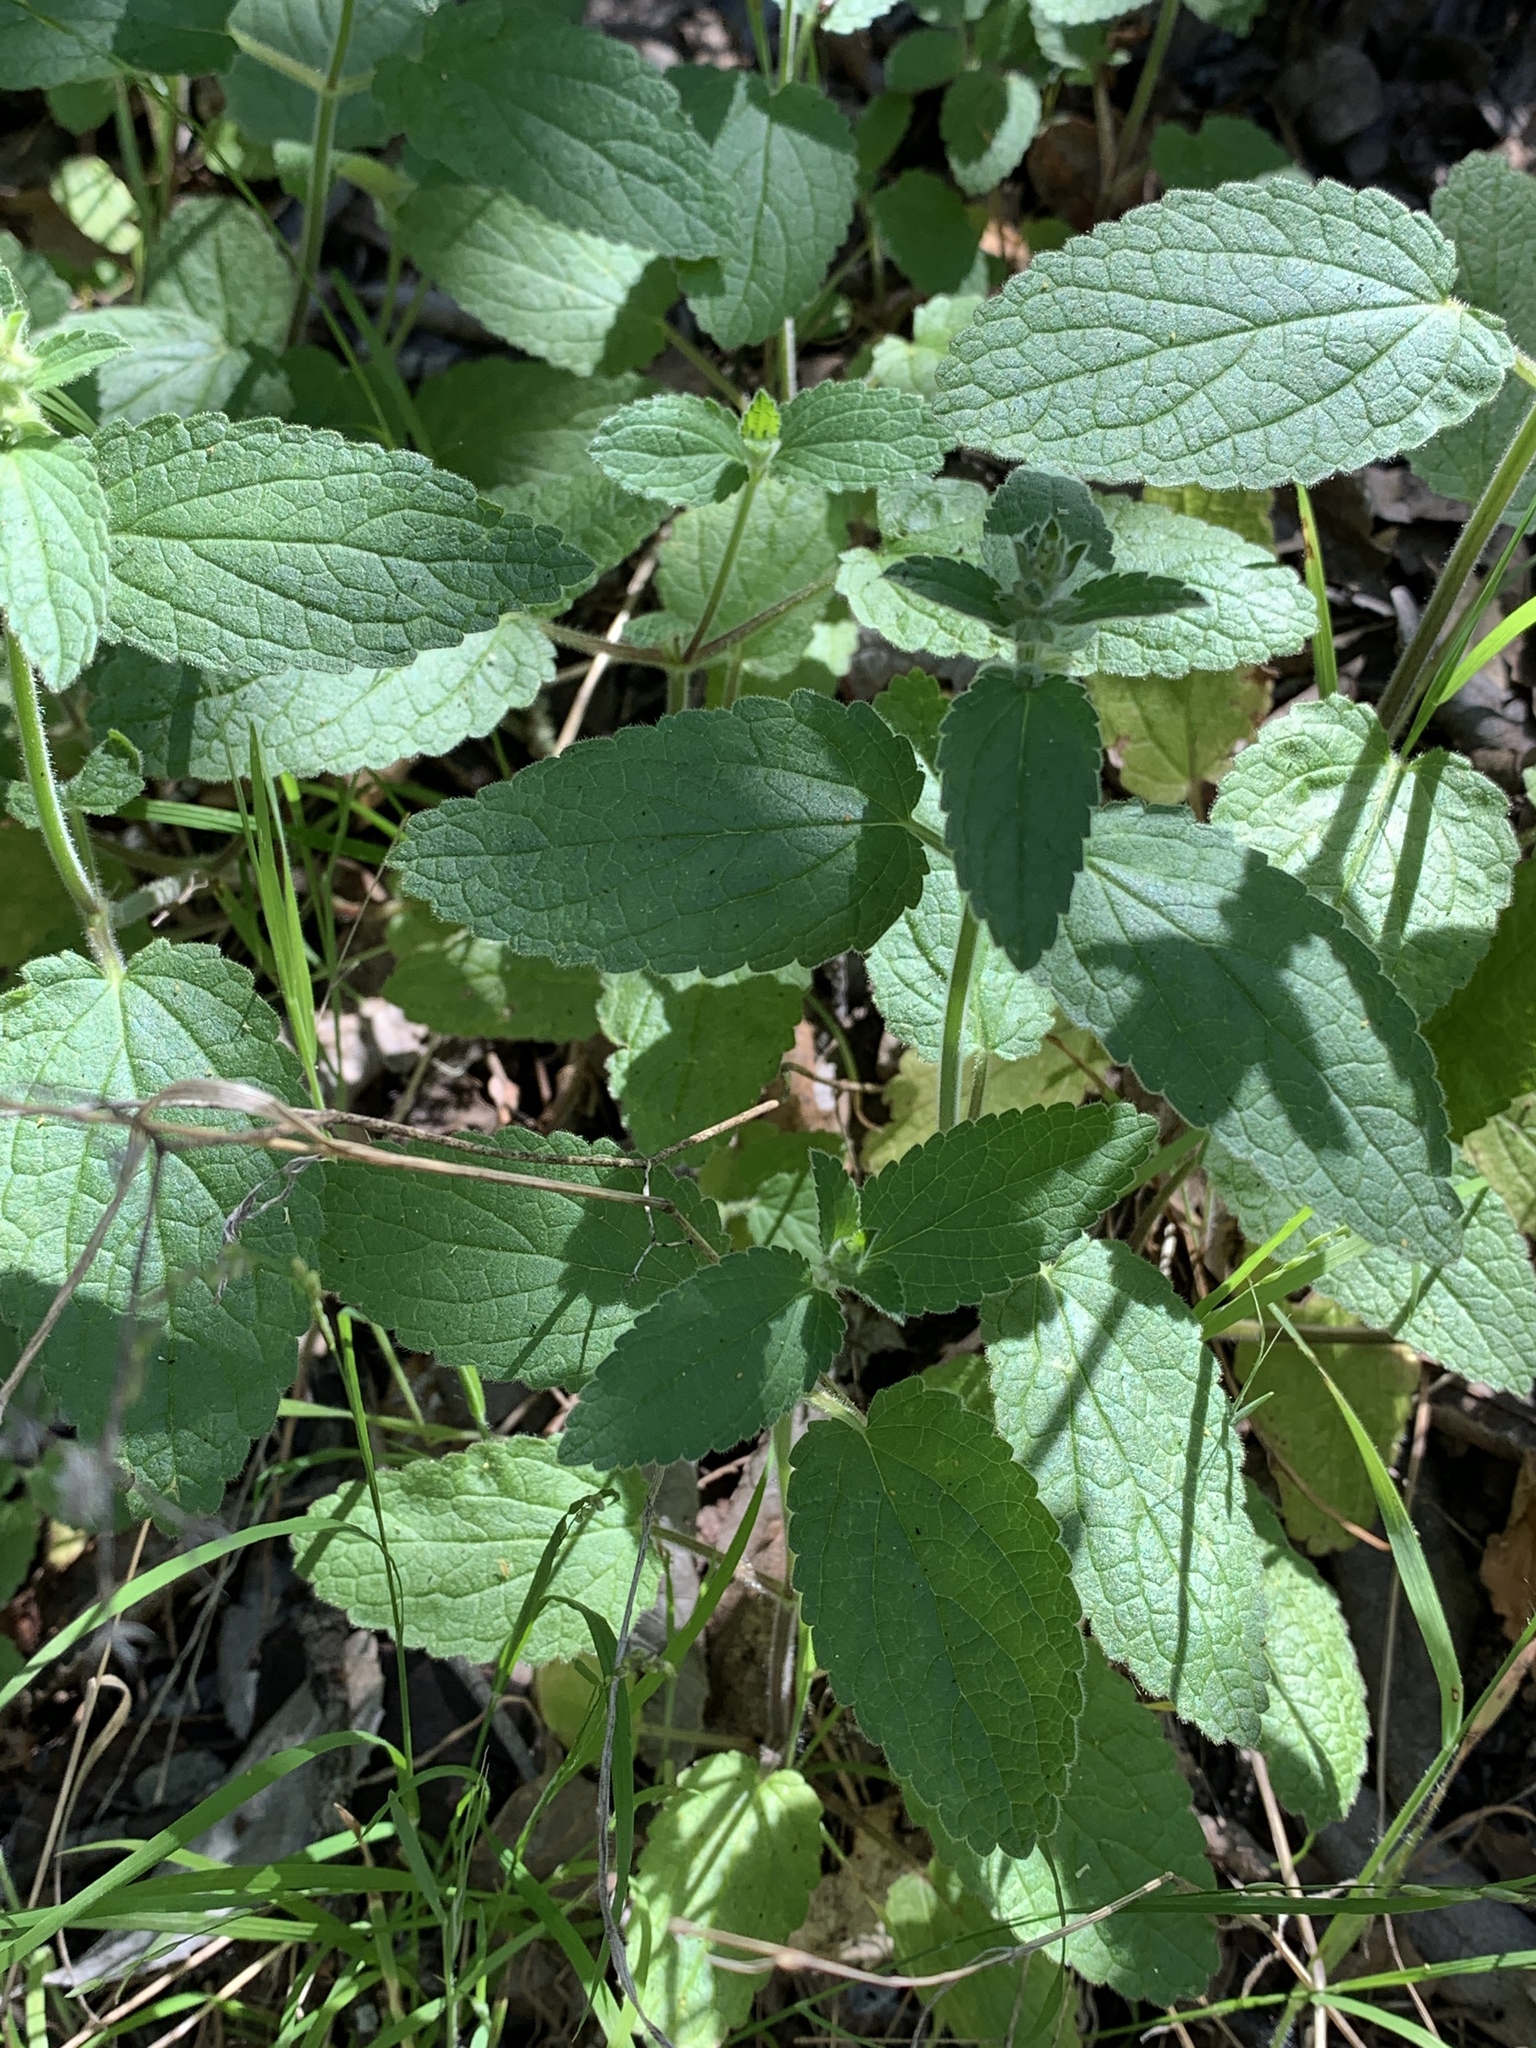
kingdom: Plantae
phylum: Tracheophyta
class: Magnoliopsida
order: Lamiales
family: Lamiaceae
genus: Stachys
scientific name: Stachys bullata
